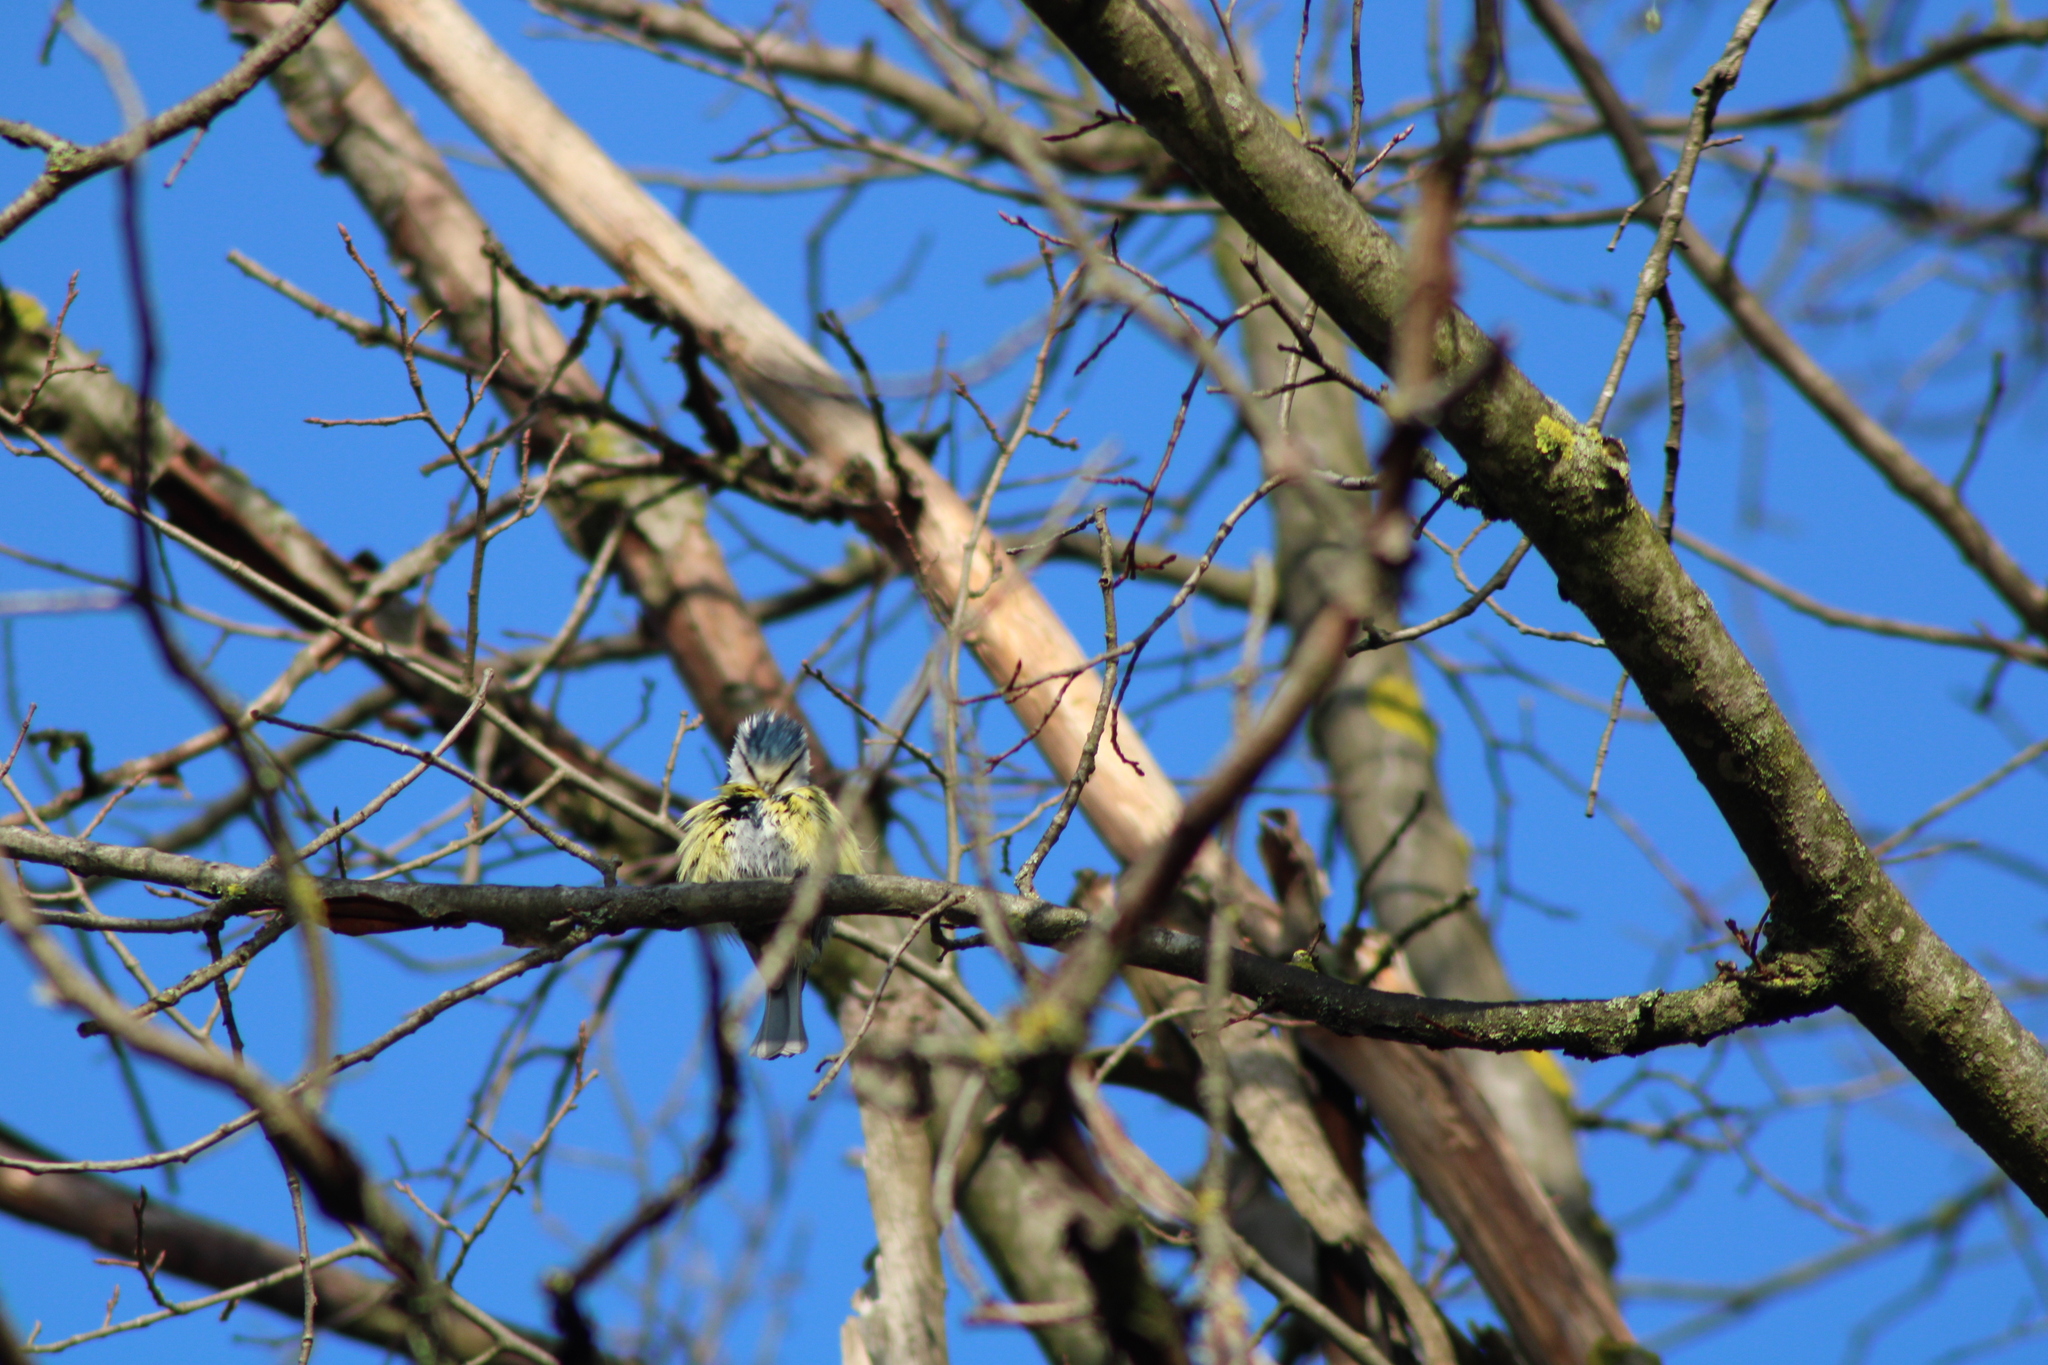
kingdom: Animalia
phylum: Chordata
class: Aves
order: Passeriformes
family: Paridae
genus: Cyanistes
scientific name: Cyanistes caeruleus
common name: Eurasian blue tit
